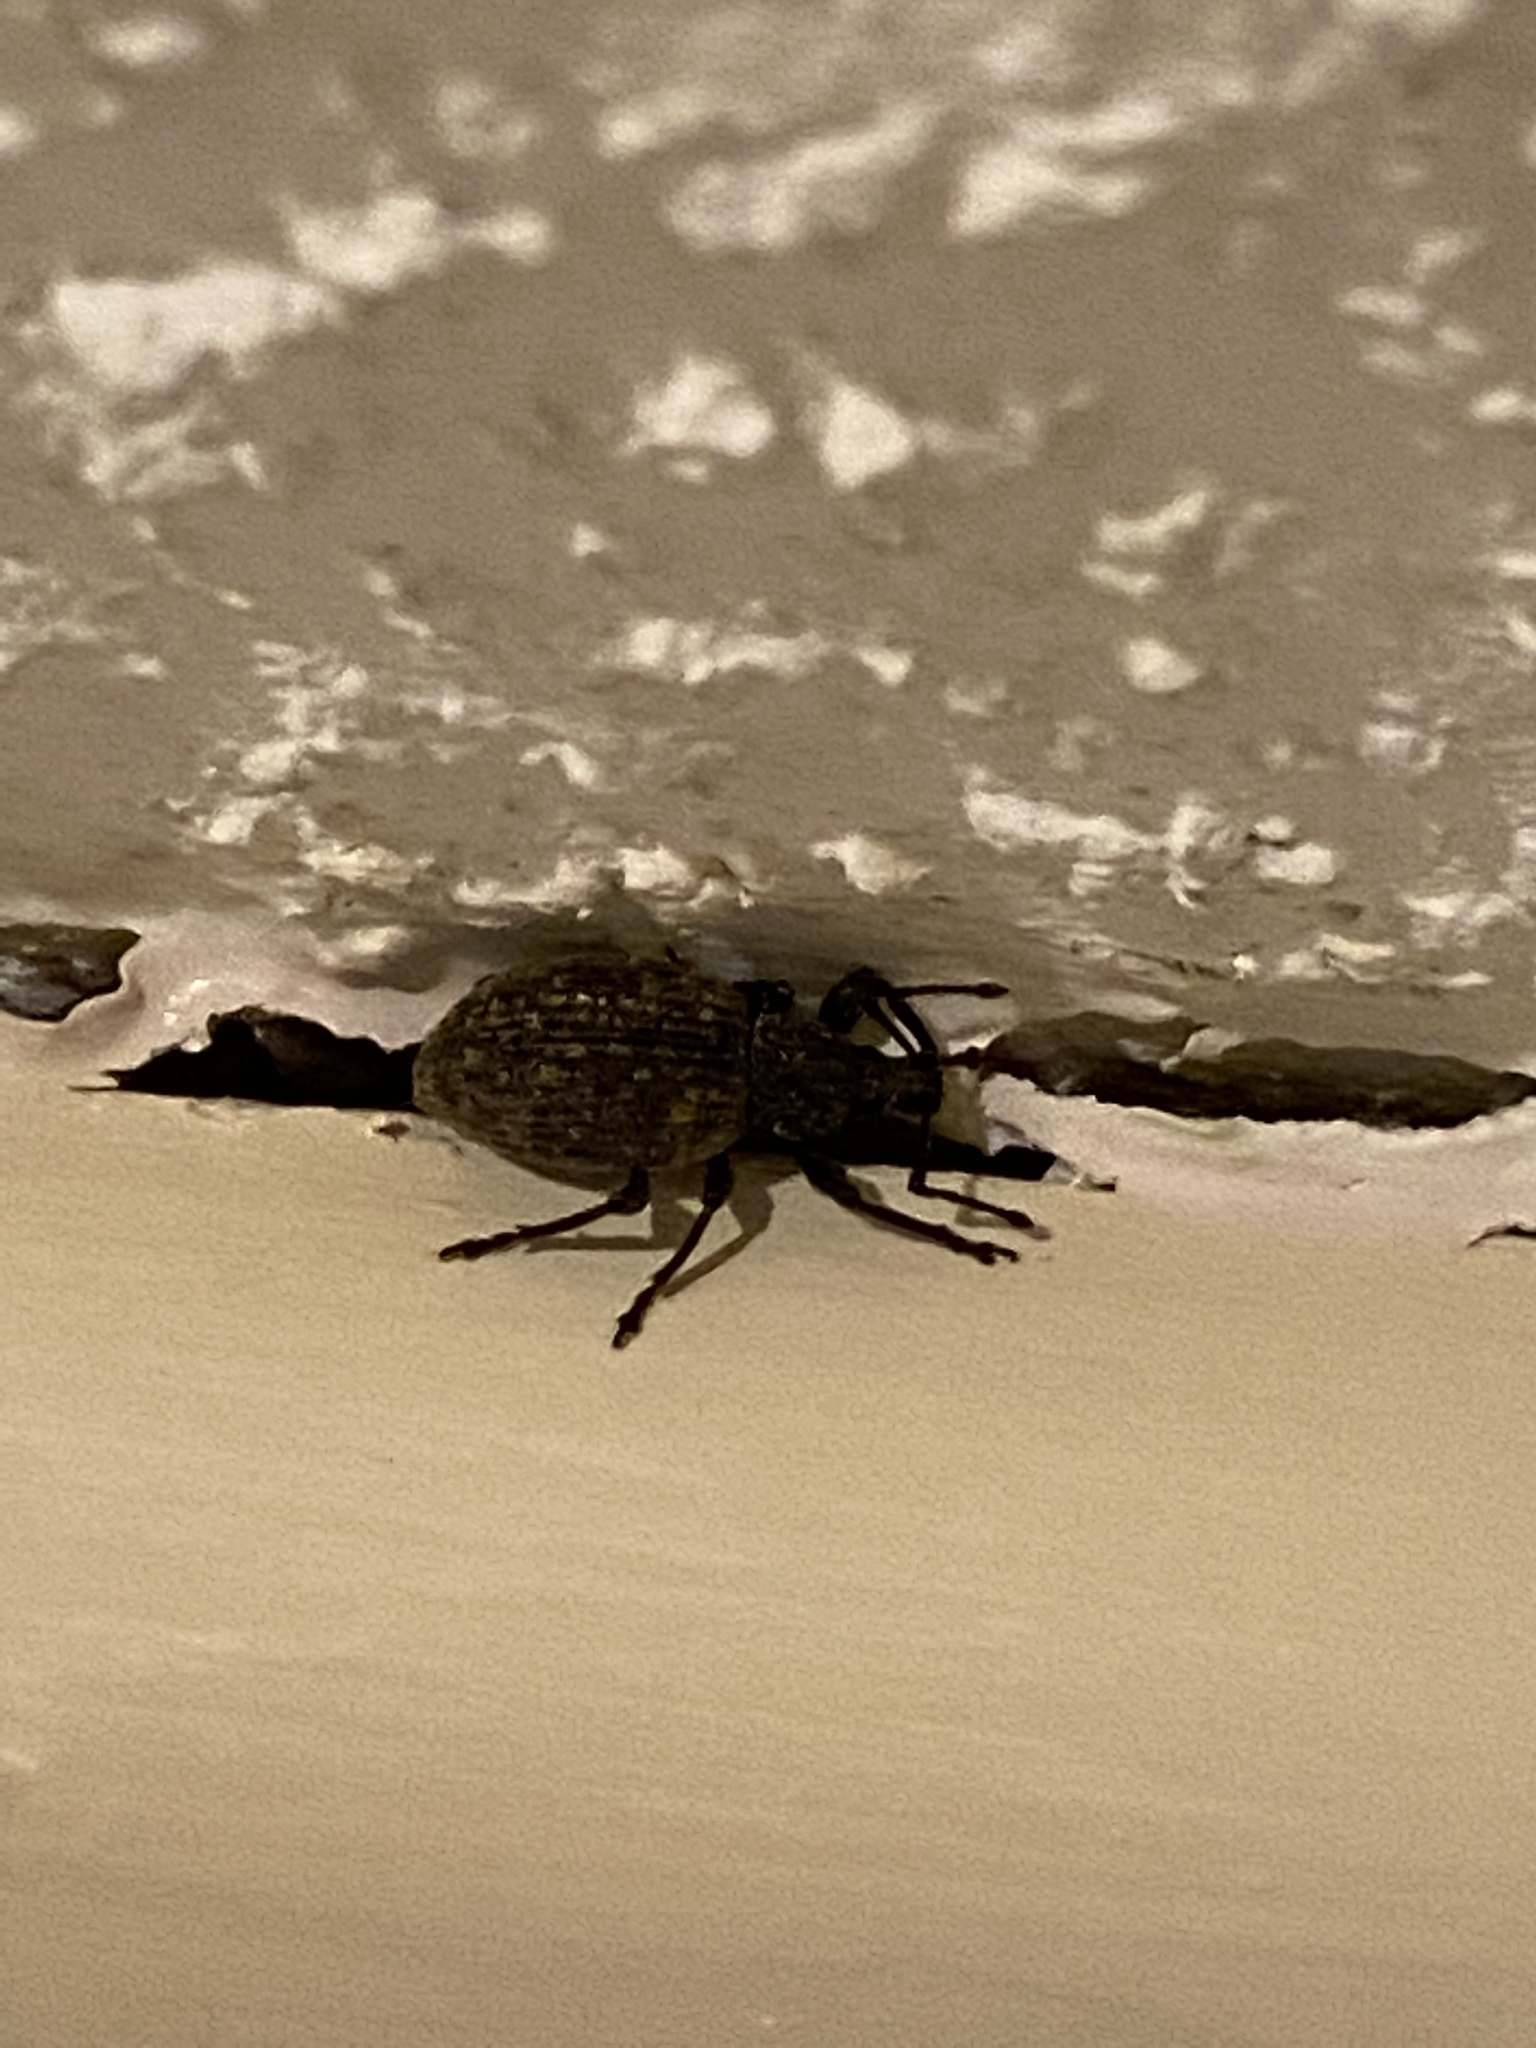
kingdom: Animalia
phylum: Arthropoda
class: Insecta
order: Coleoptera
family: Curculionidae
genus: Otiorhynchus
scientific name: Otiorhynchus sulcatus
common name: Black vine weevil
